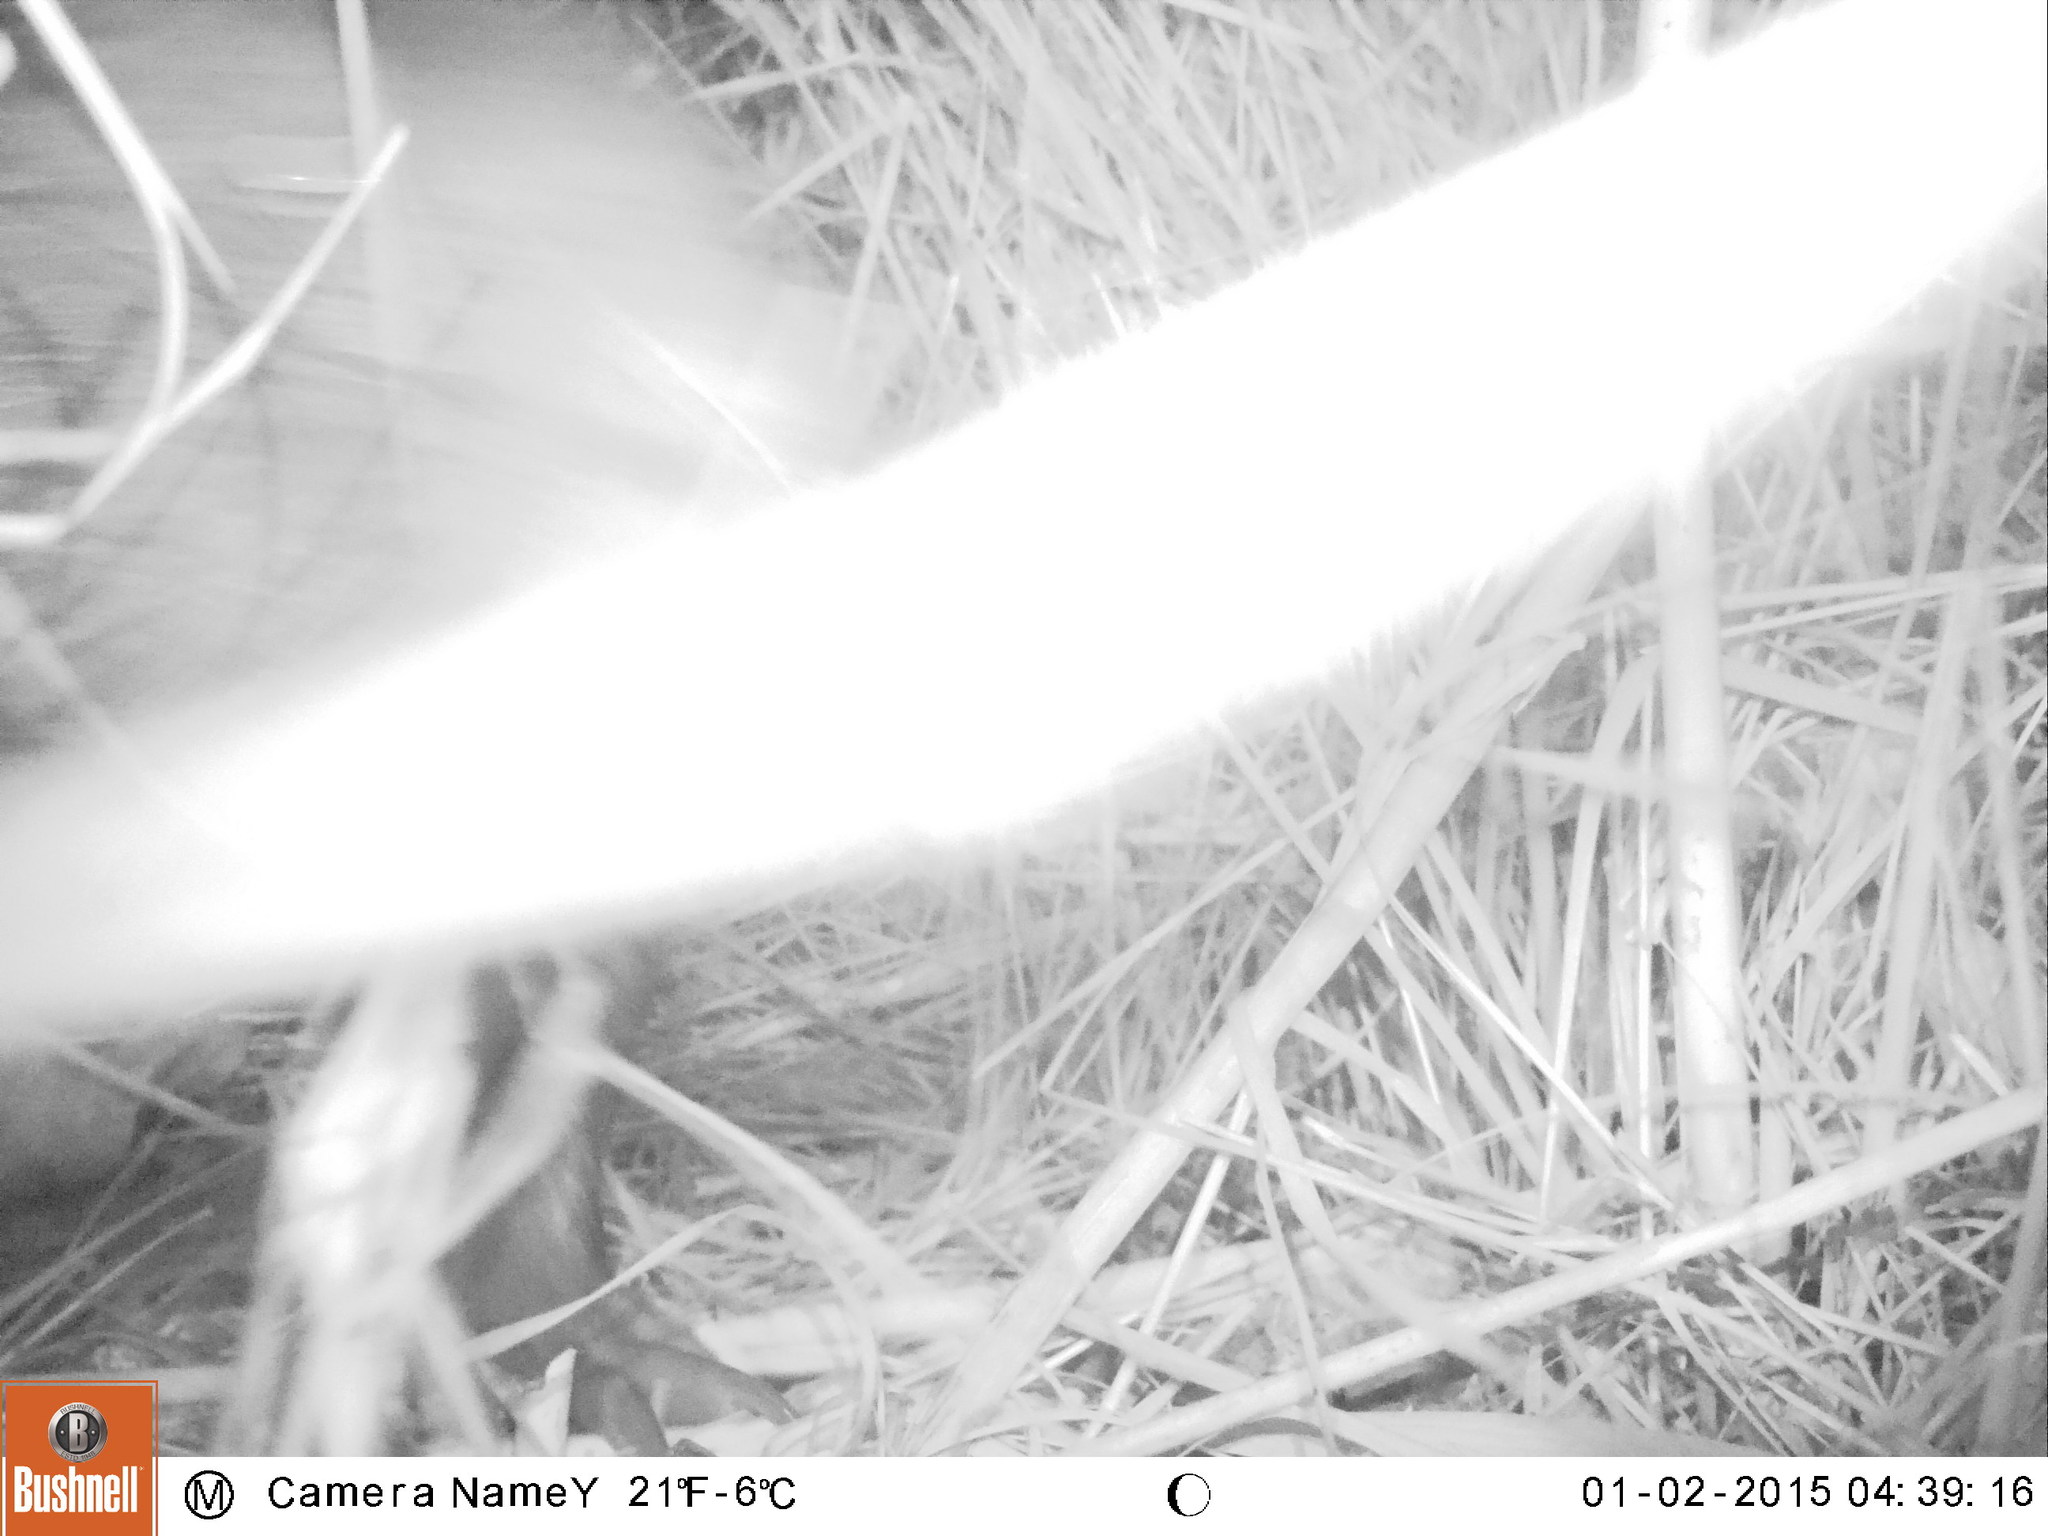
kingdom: Animalia
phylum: Chordata
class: Mammalia
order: Rodentia
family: Myocastoridae
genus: Myocastor
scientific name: Myocastor coypus
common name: Coypu
